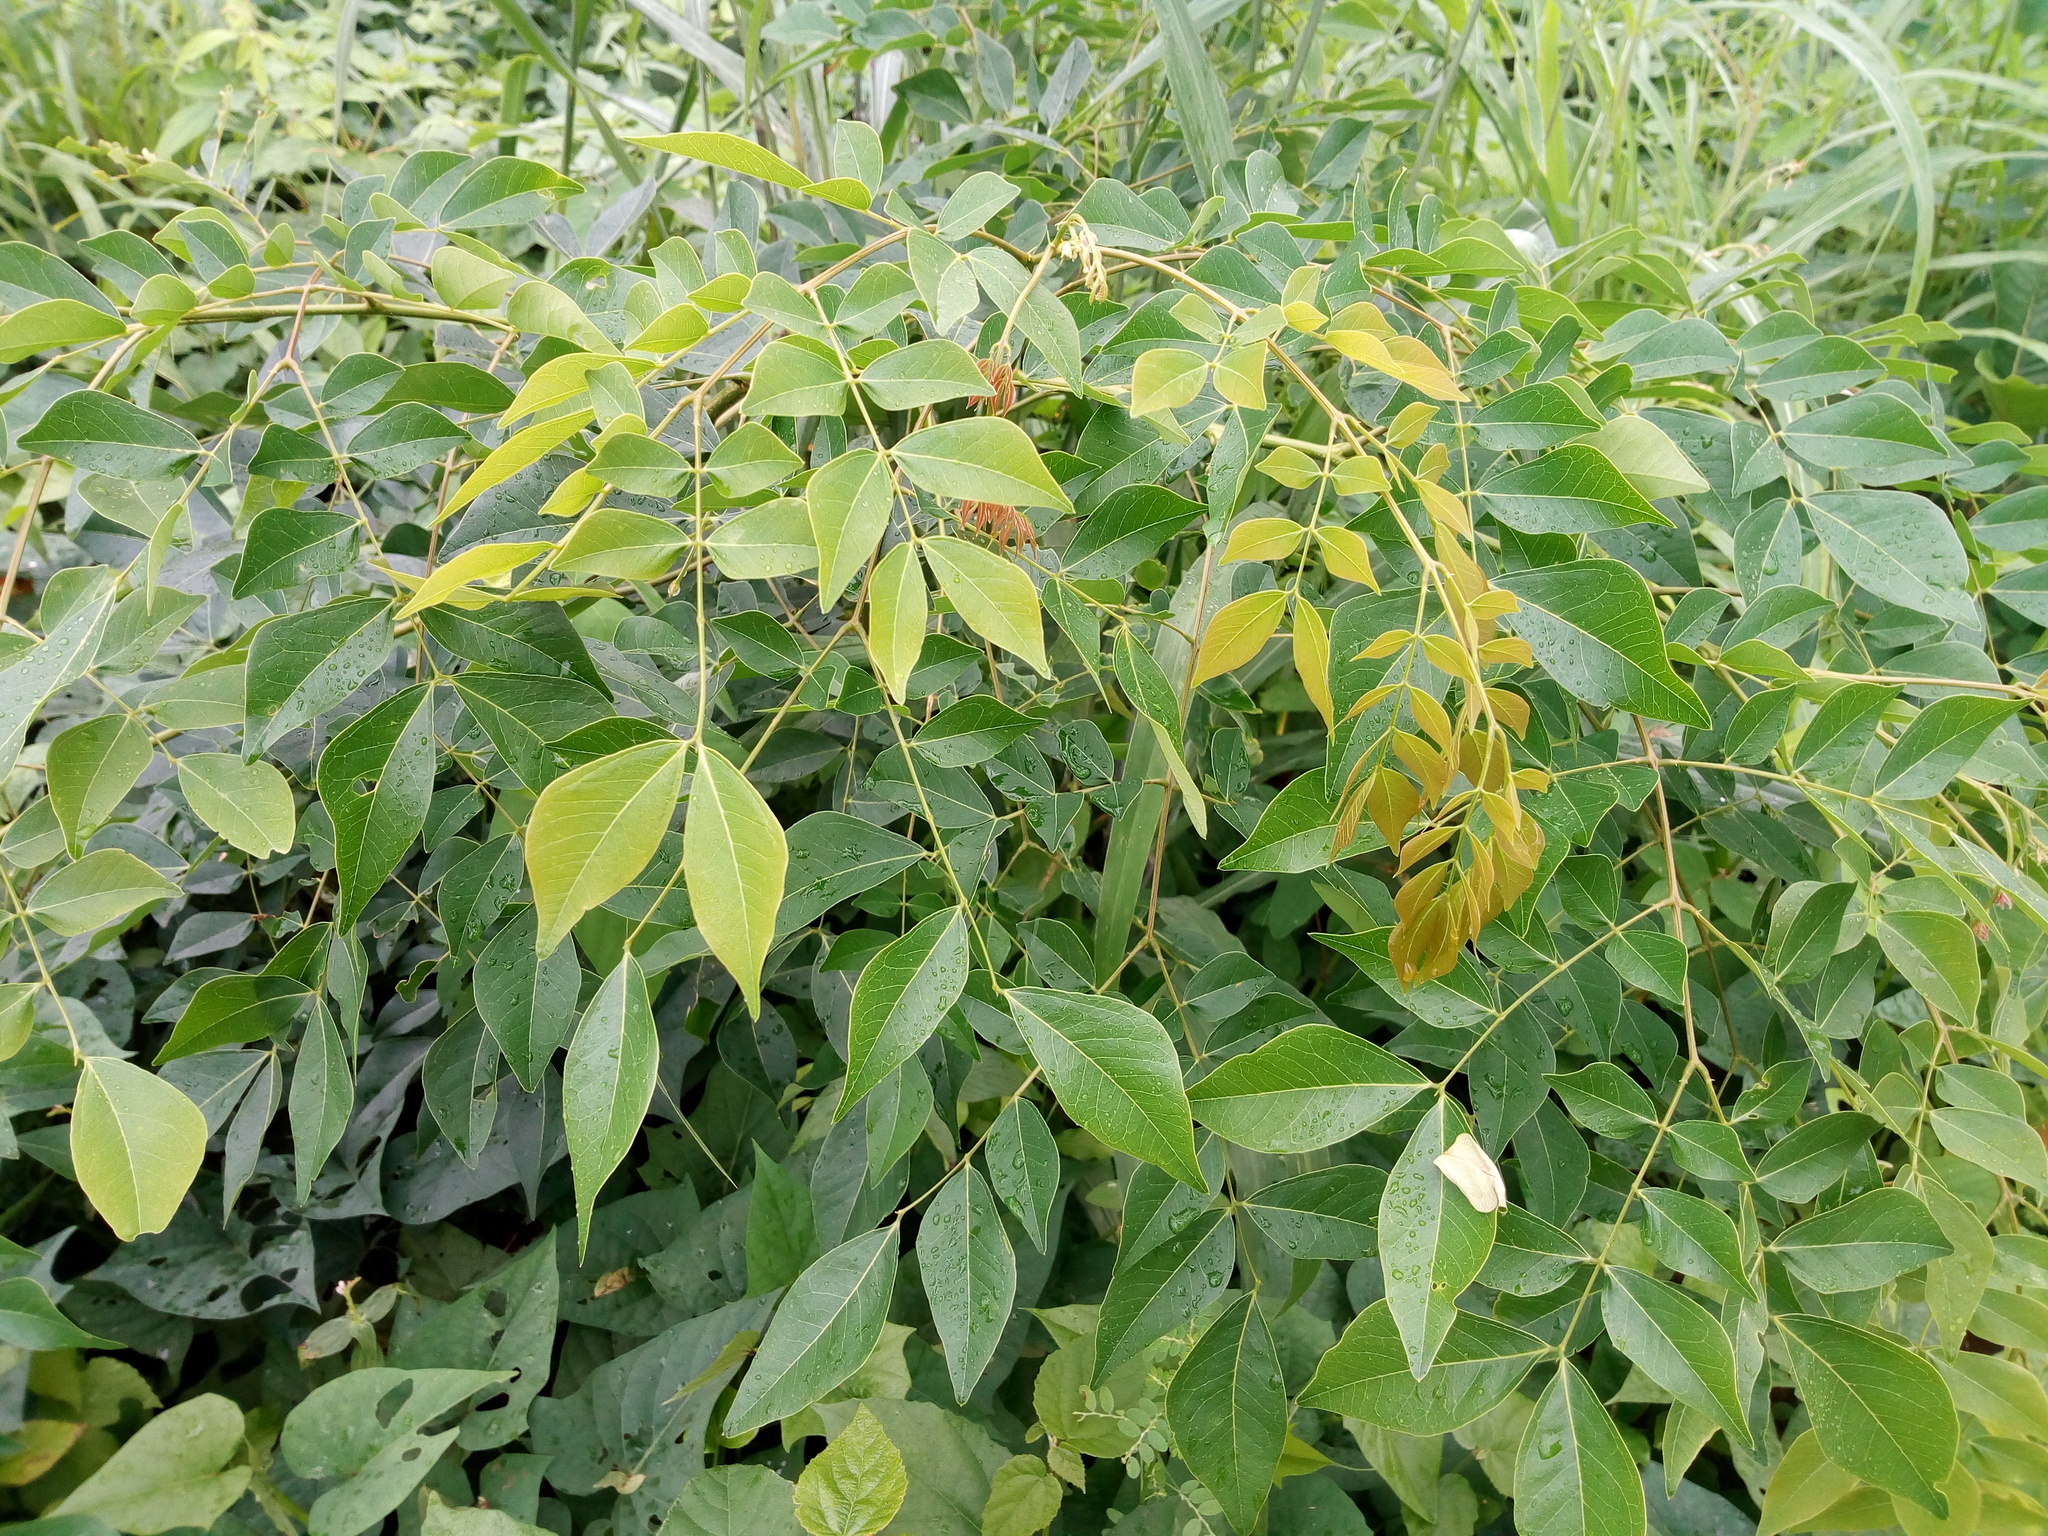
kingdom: Plantae
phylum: Tracheophyta
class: Magnoliopsida
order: Fabales
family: Fabaceae
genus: Albizia
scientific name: Albizia zygia
